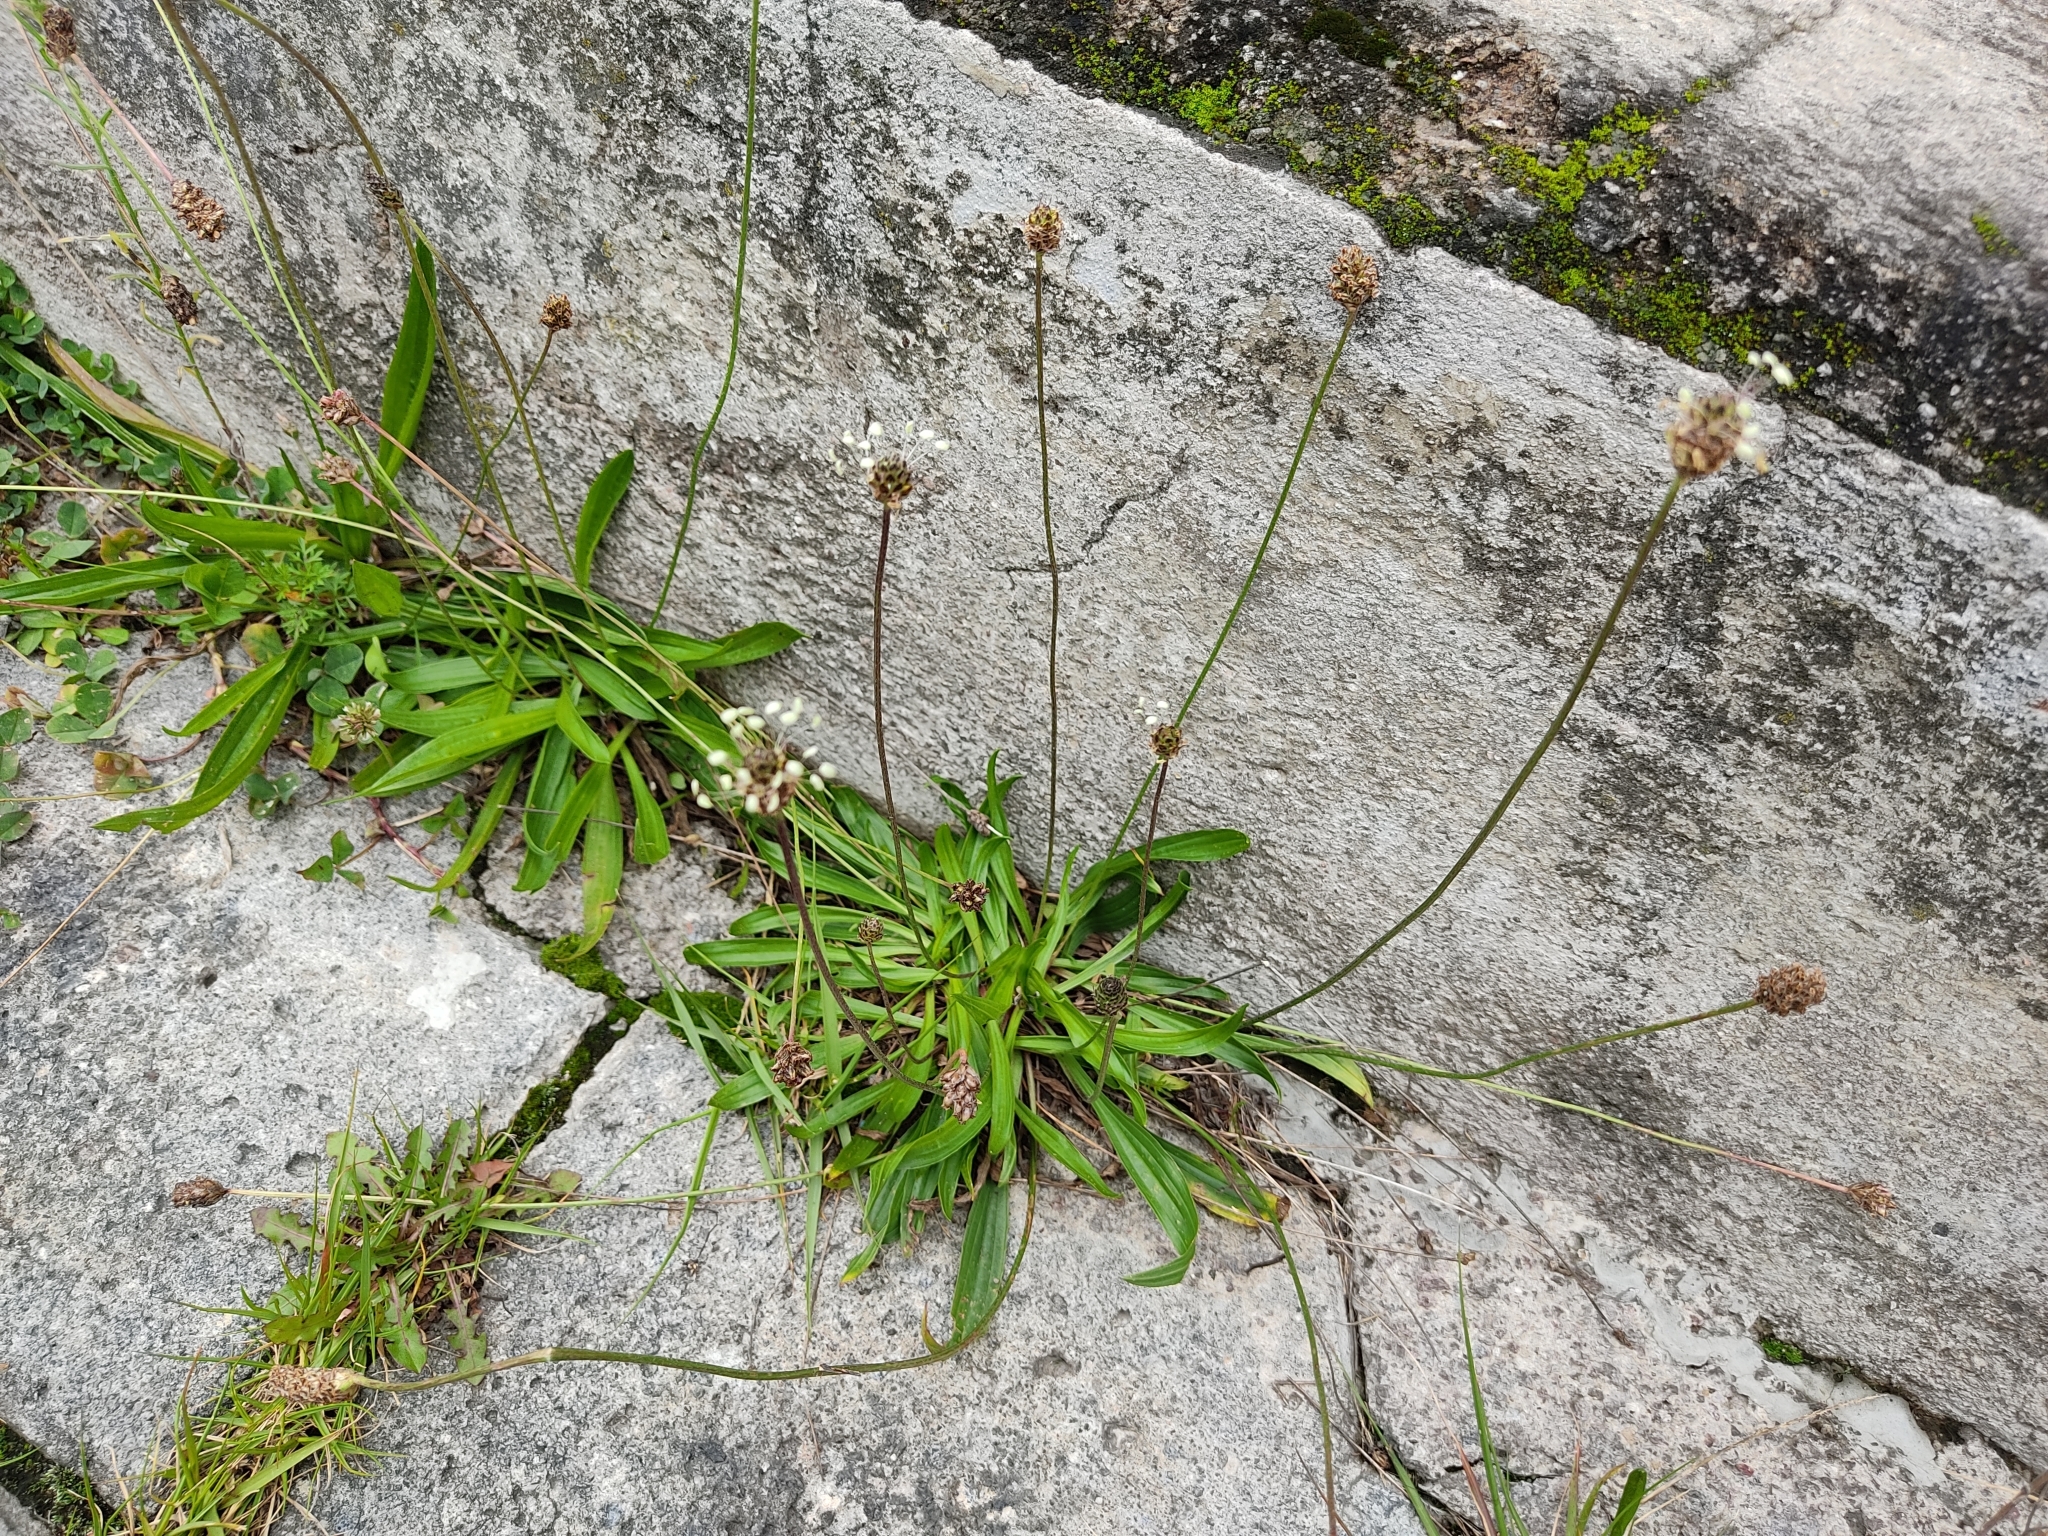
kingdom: Plantae
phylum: Tracheophyta
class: Magnoliopsida
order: Lamiales
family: Plantaginaceae
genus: Plantago
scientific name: Plantago lanceolata
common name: Ribwort plantain
